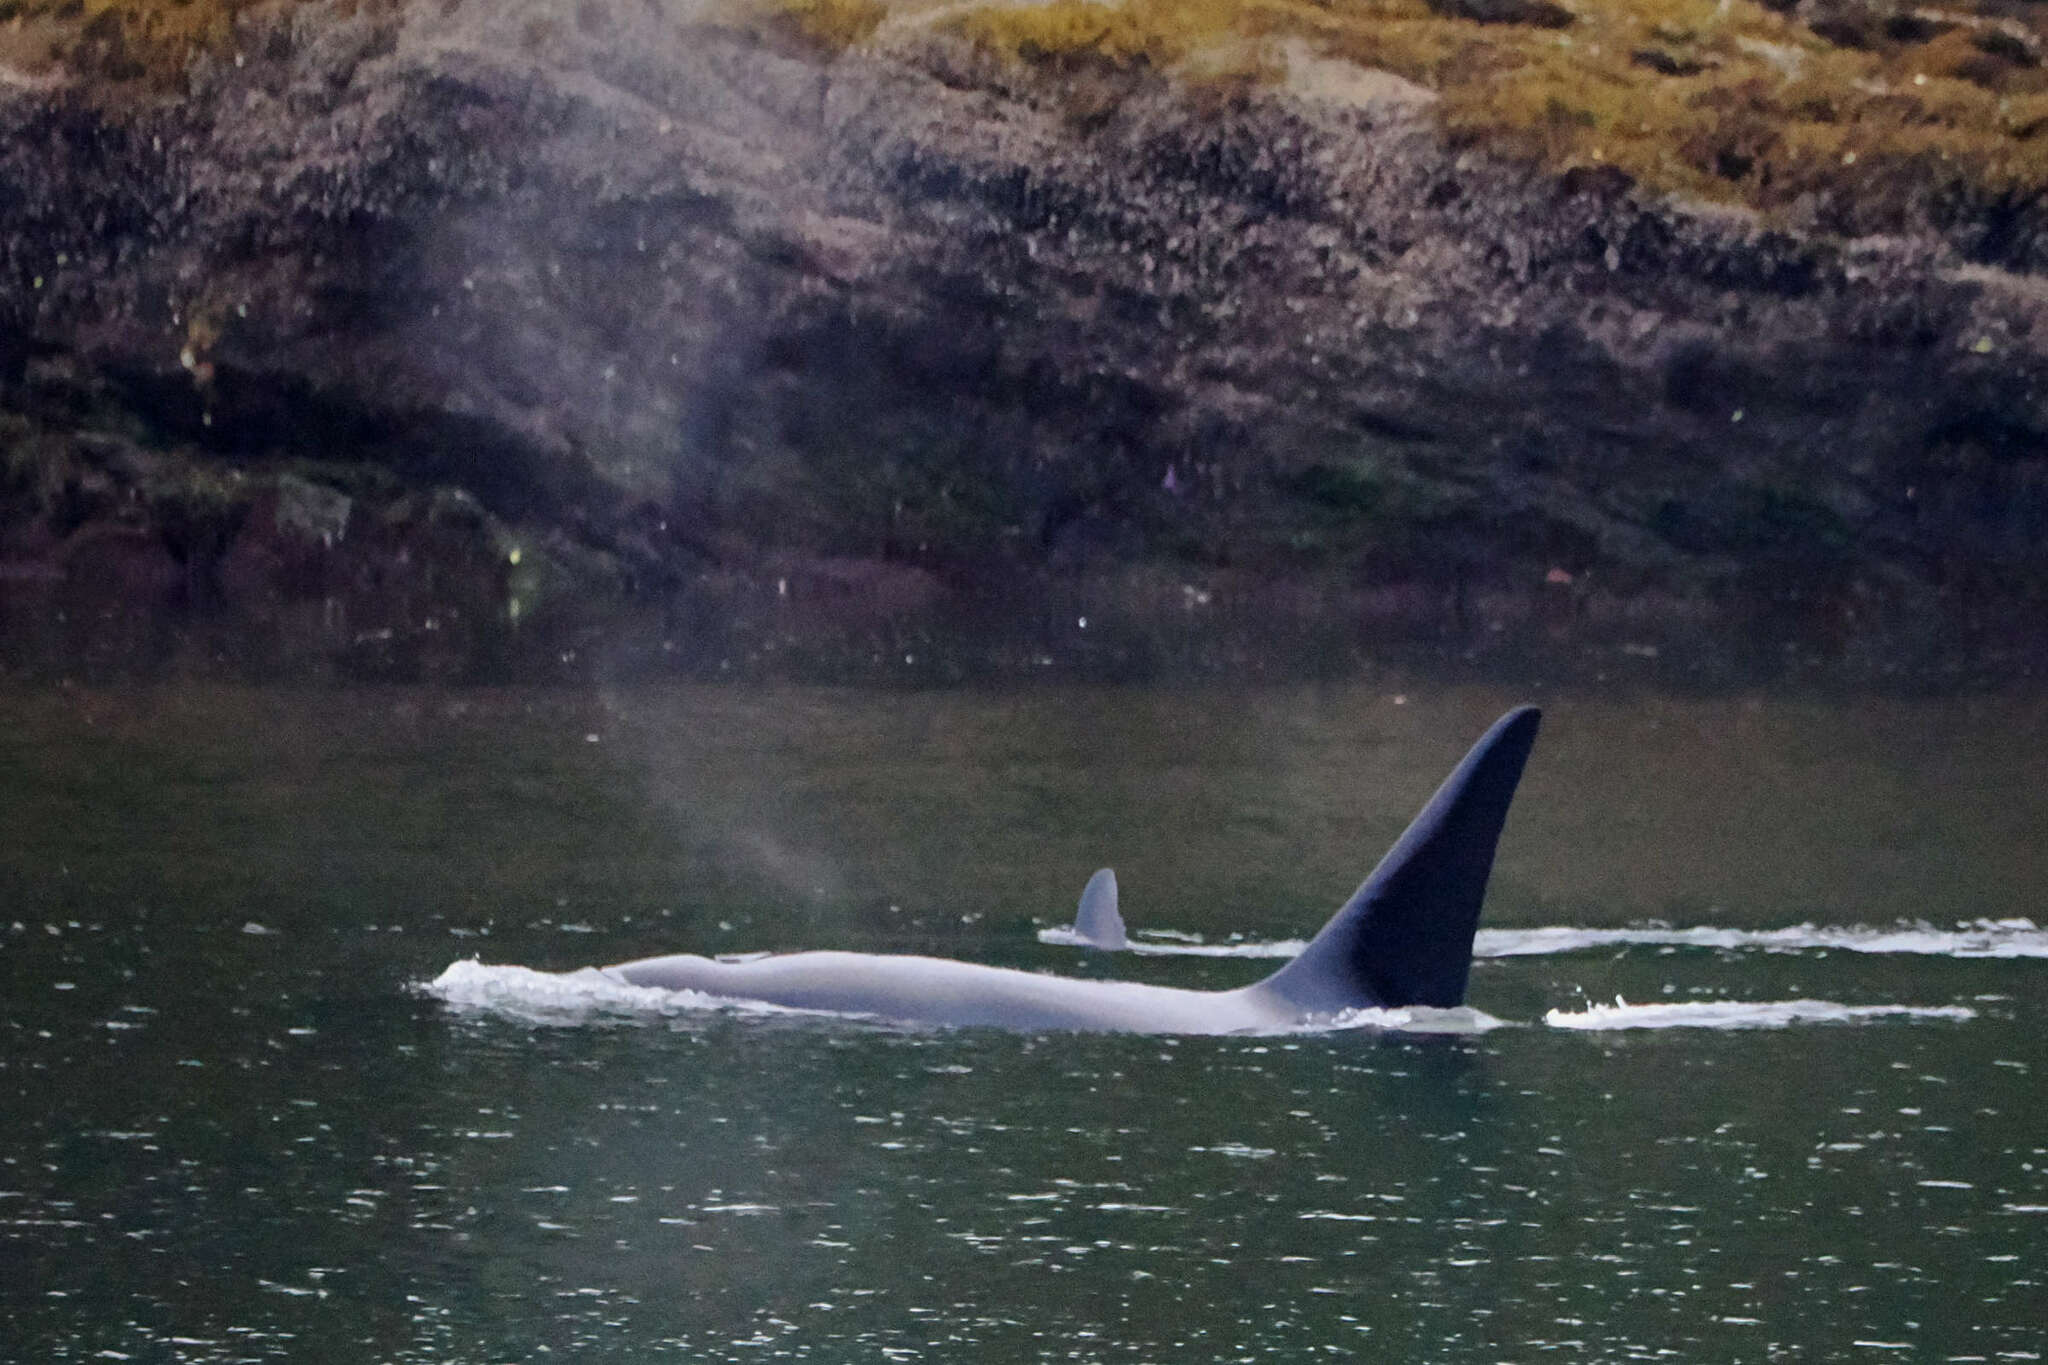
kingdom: Animalia
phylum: Chordata
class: Mammalia
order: Cetacea
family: Delphinidae
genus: Orcinus
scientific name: Orcinus orca
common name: Killer whale
